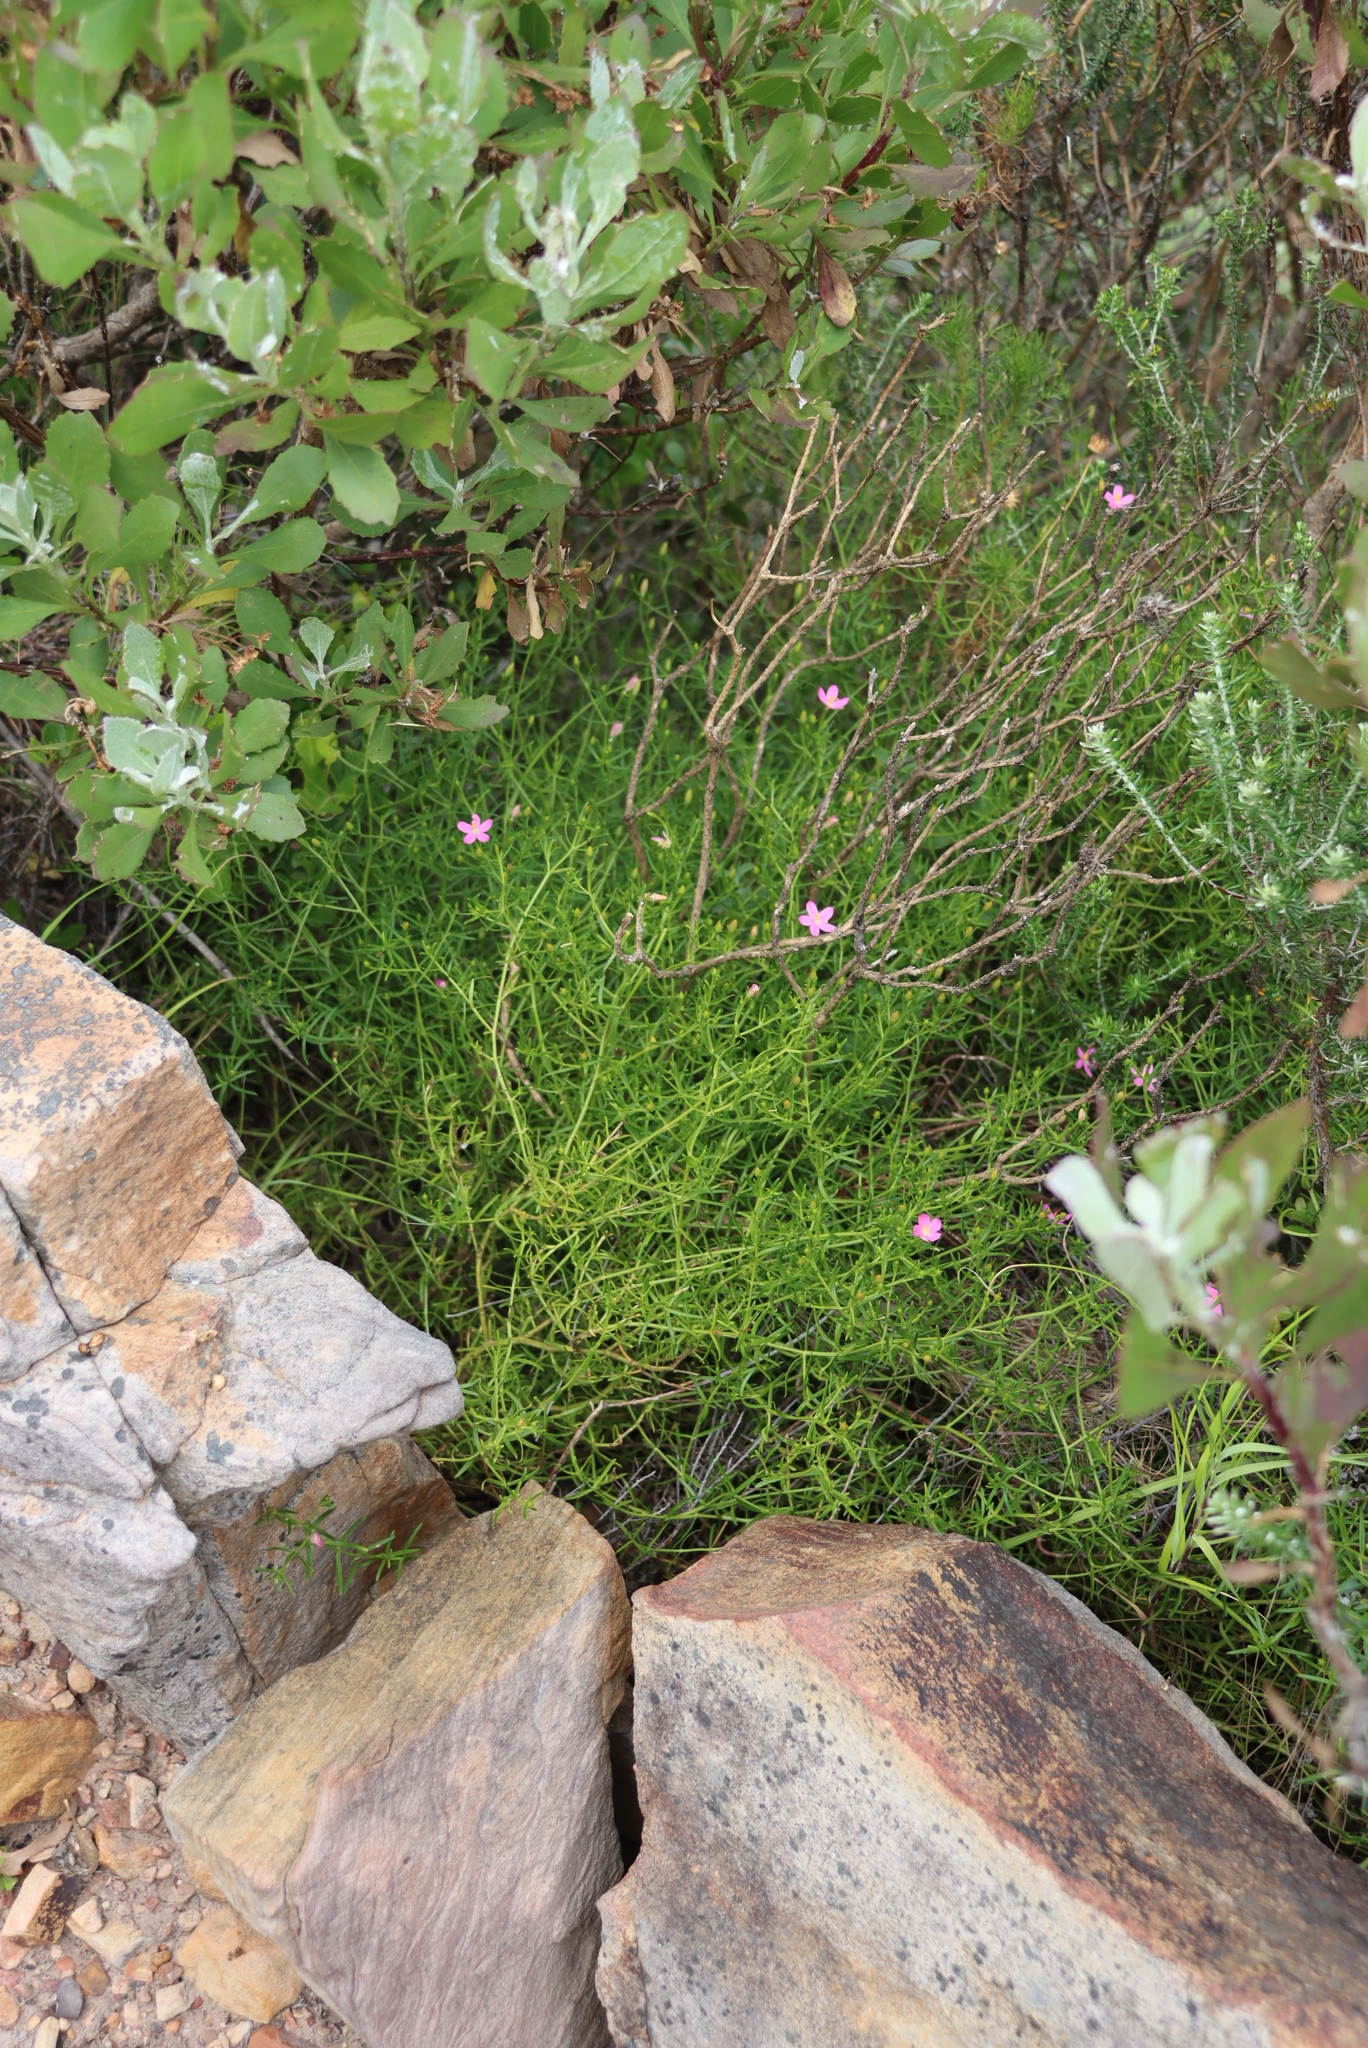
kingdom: Plantae
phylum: Tracheophyta
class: Magnoliopsida
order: Gentianales
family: Gentianaceae
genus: Chironia
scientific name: Chironia baccifera
